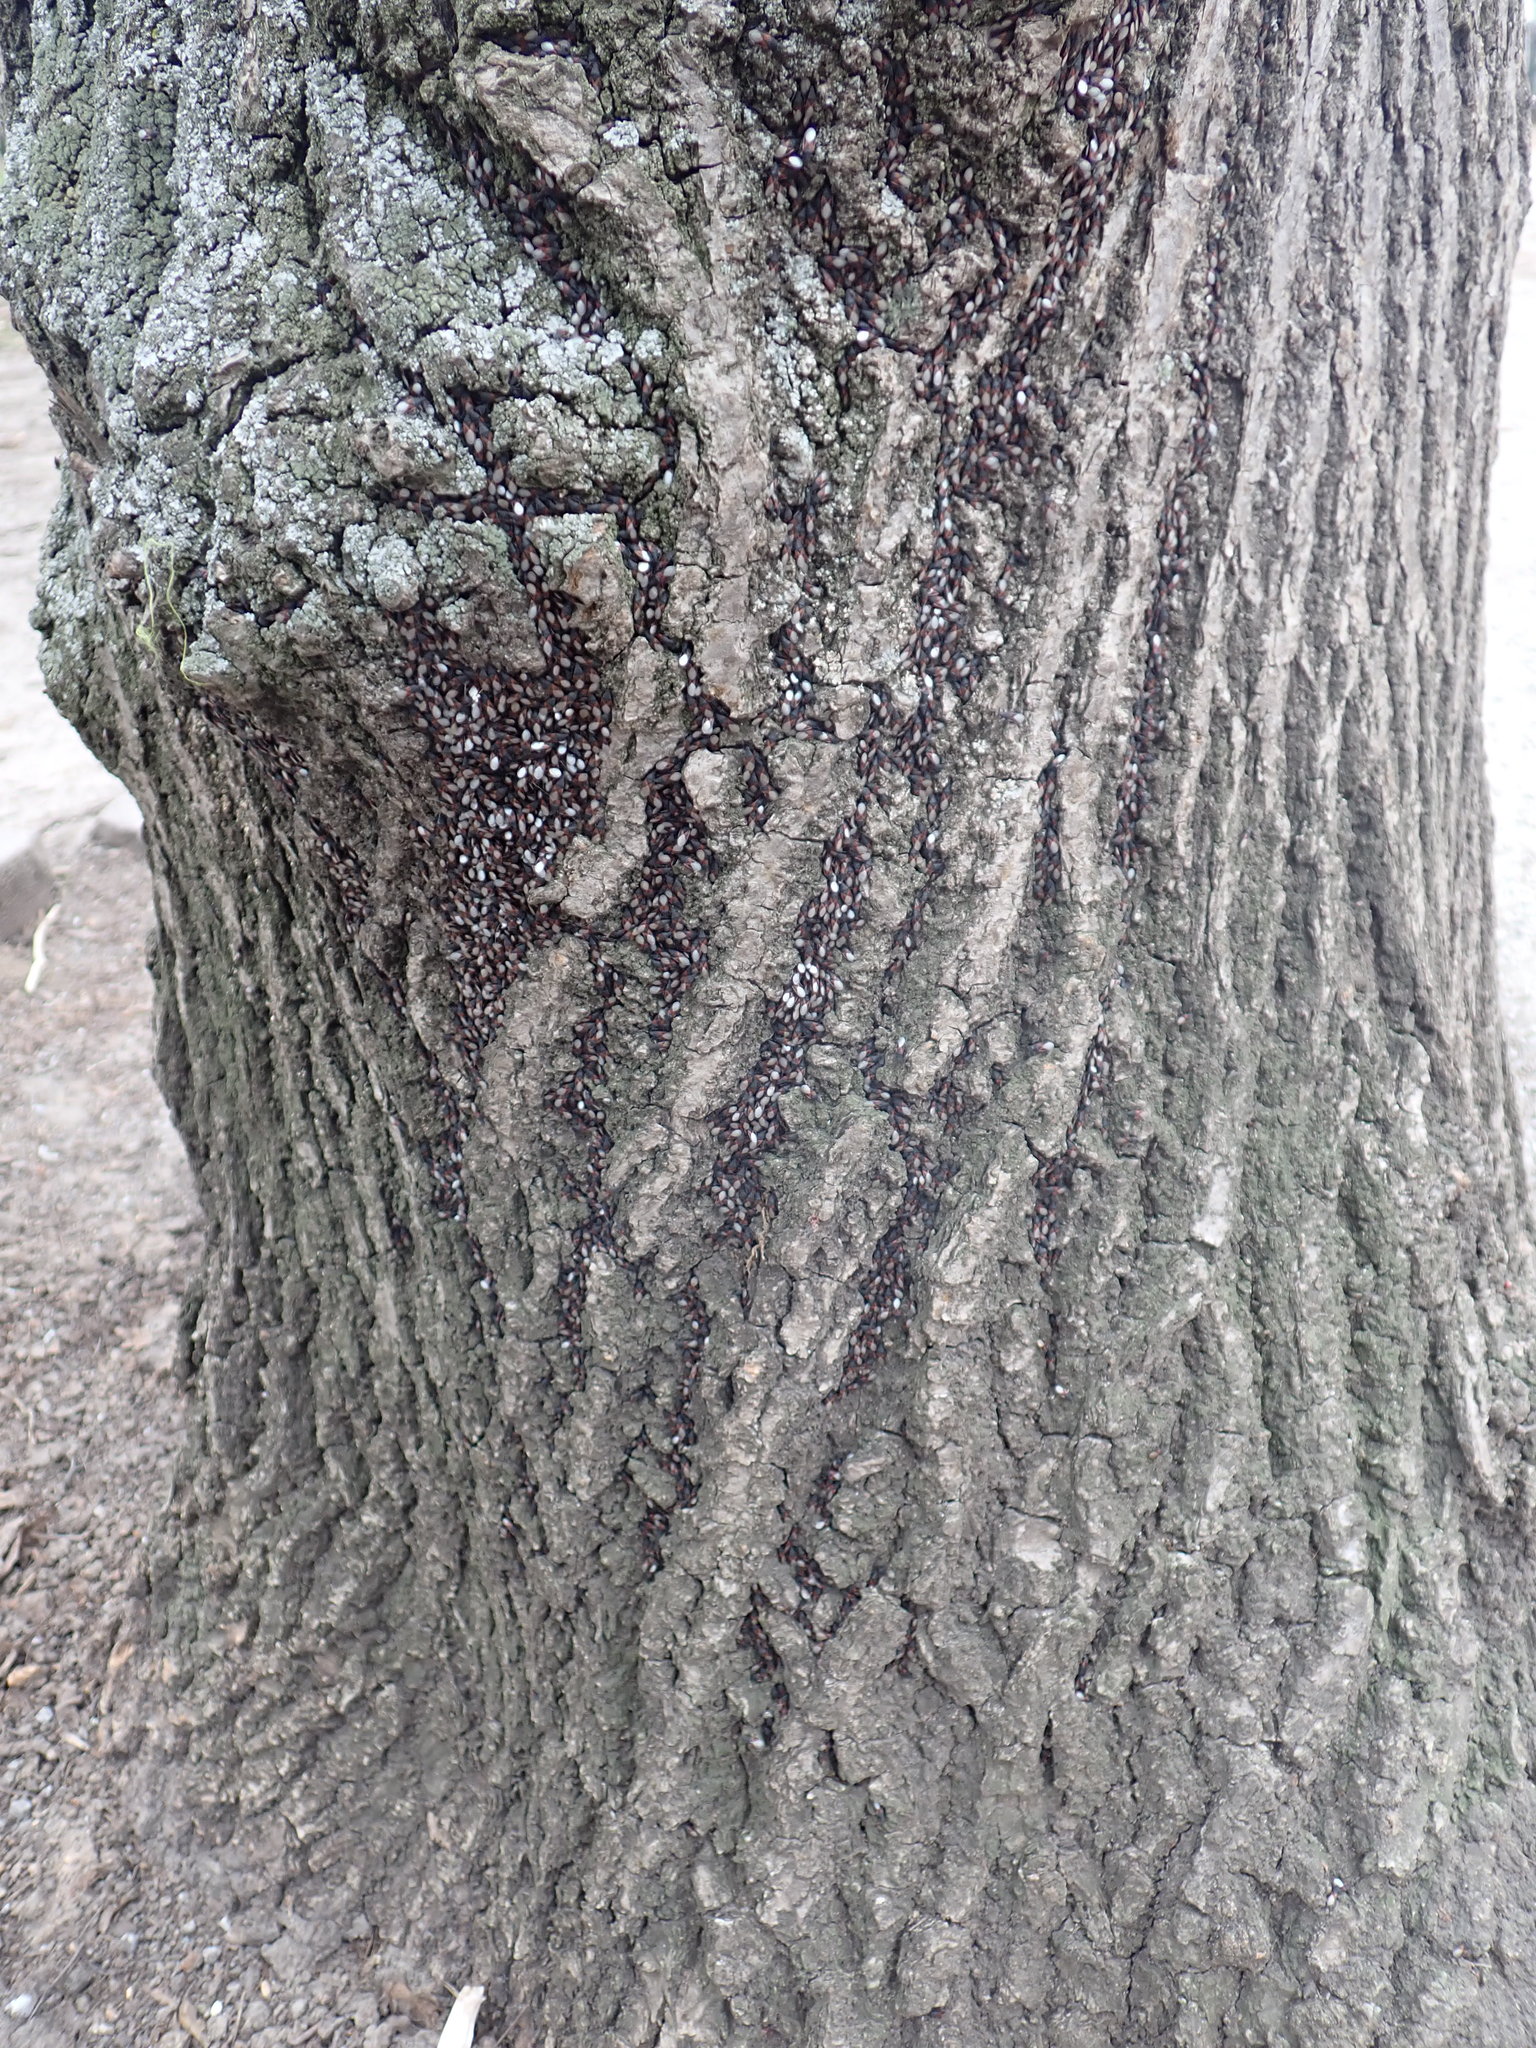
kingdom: Animalia
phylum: Arthropoda
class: Insecta
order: Hemiptera
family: Oxycarenidae
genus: Oxycarenus
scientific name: Oxycarenus lavaterae
